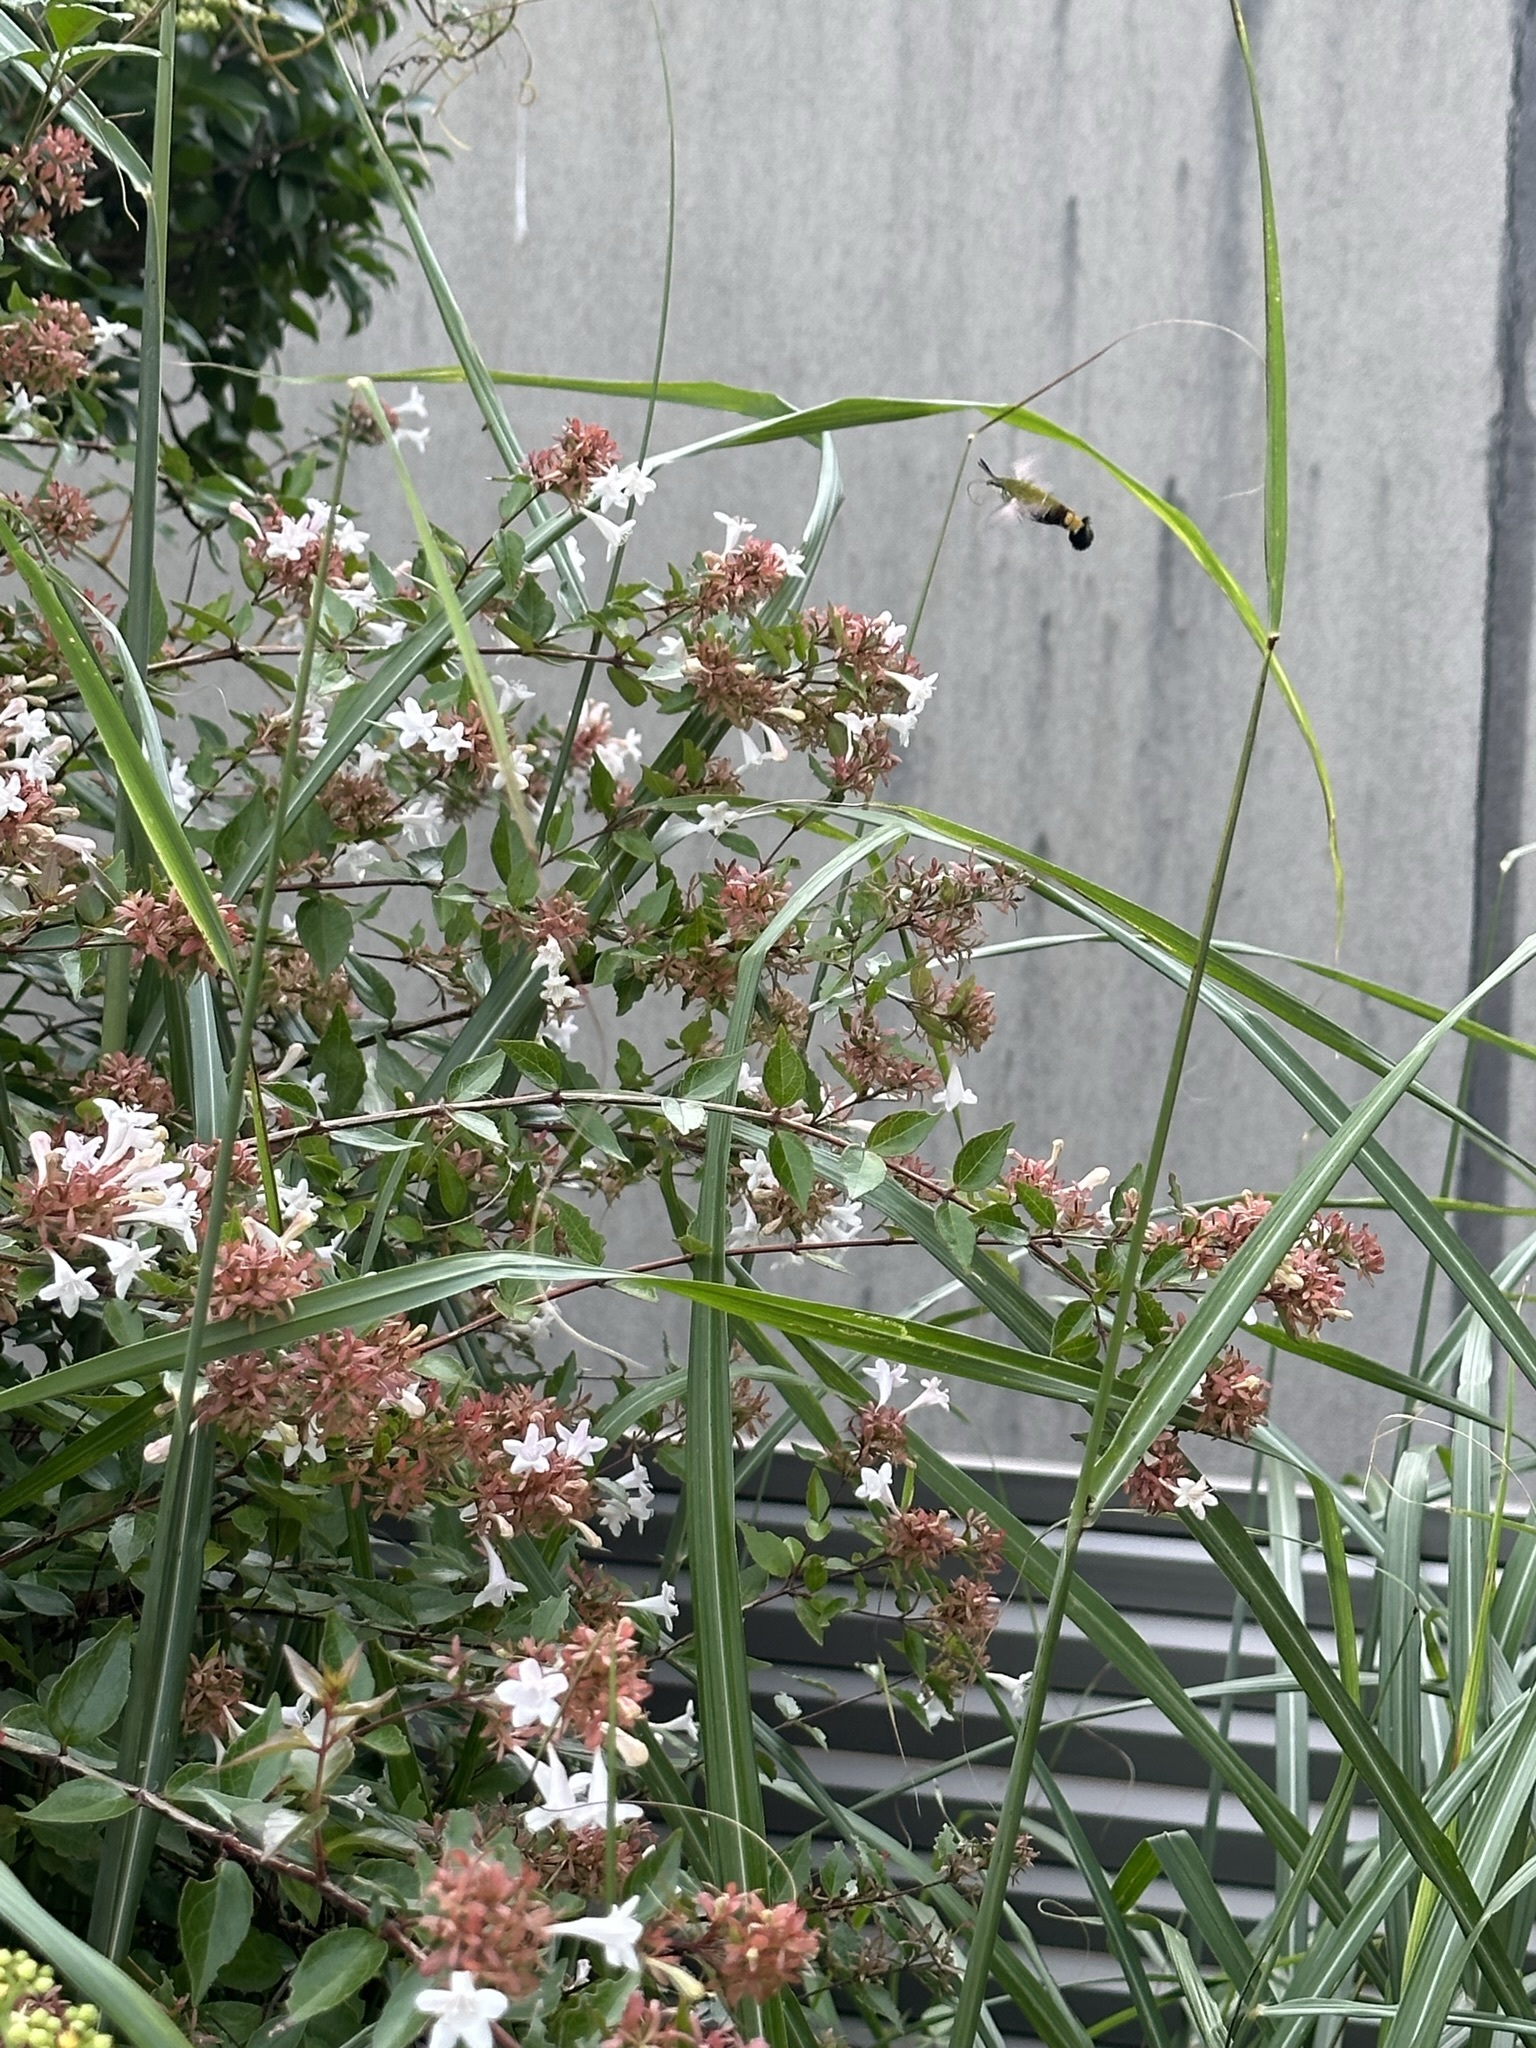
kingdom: Animalia
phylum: Arthropoda
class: Insecta
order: Lepidoptera
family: Sphingidae
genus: Cephonodes
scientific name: Cephonodes hylas
